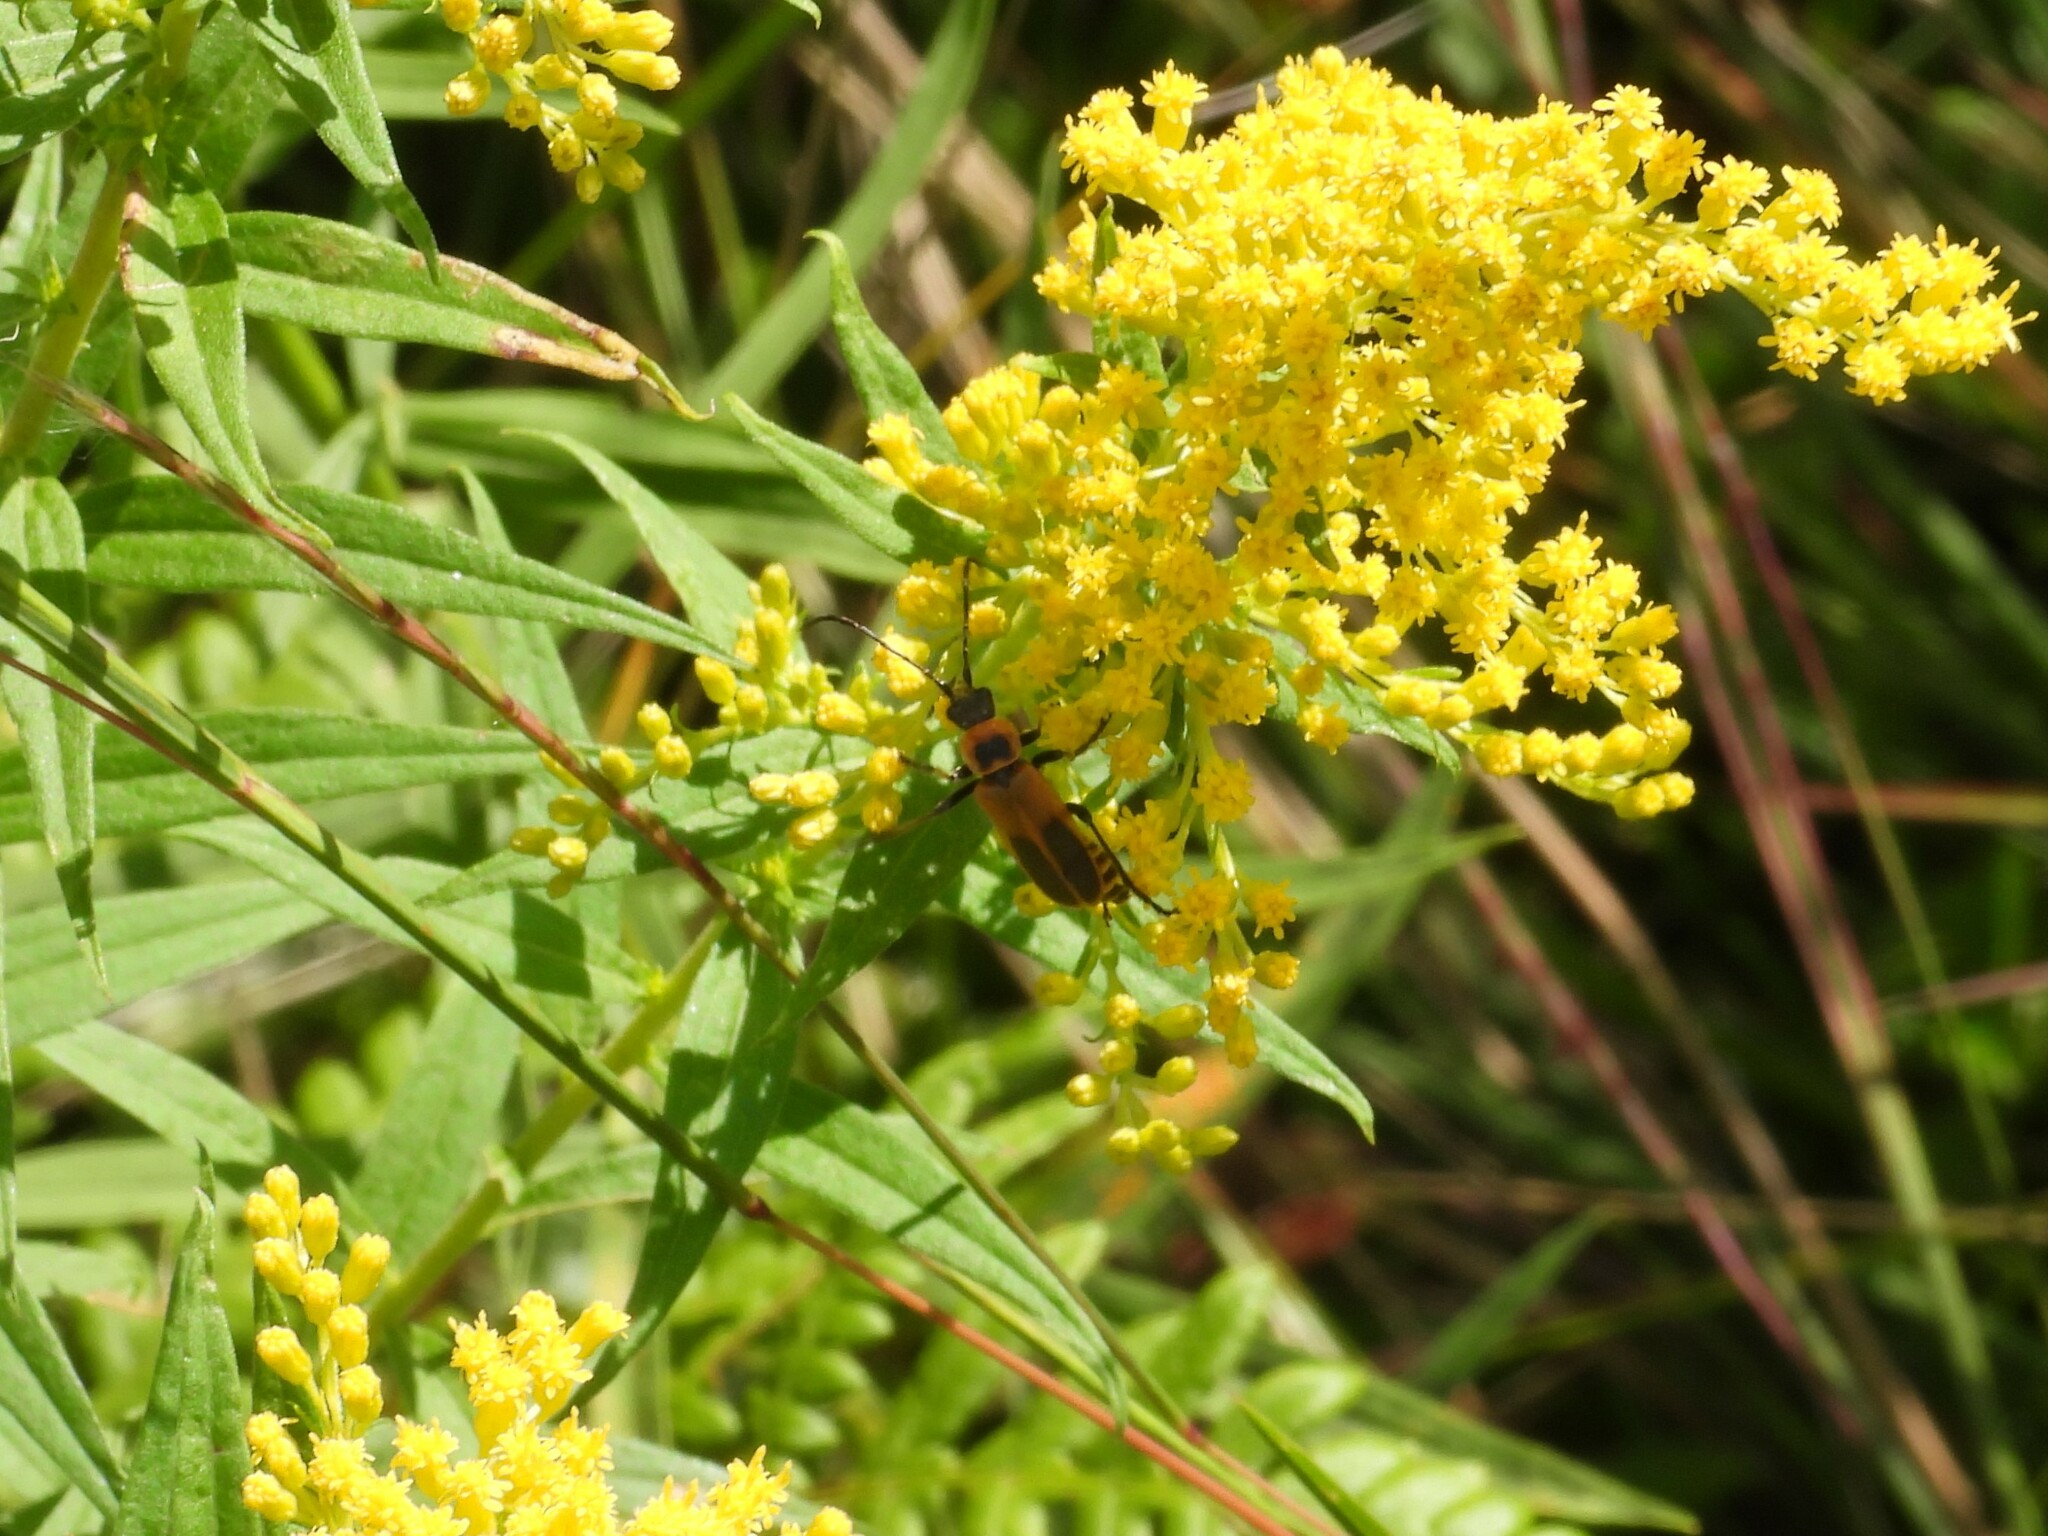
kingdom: Animalia
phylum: Arthropoda
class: Insecta
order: Coleoptera
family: Cantharidae
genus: Chauliognathus
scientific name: Chauliognathus pensylvanicus
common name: Goldenrod soldier beetle
